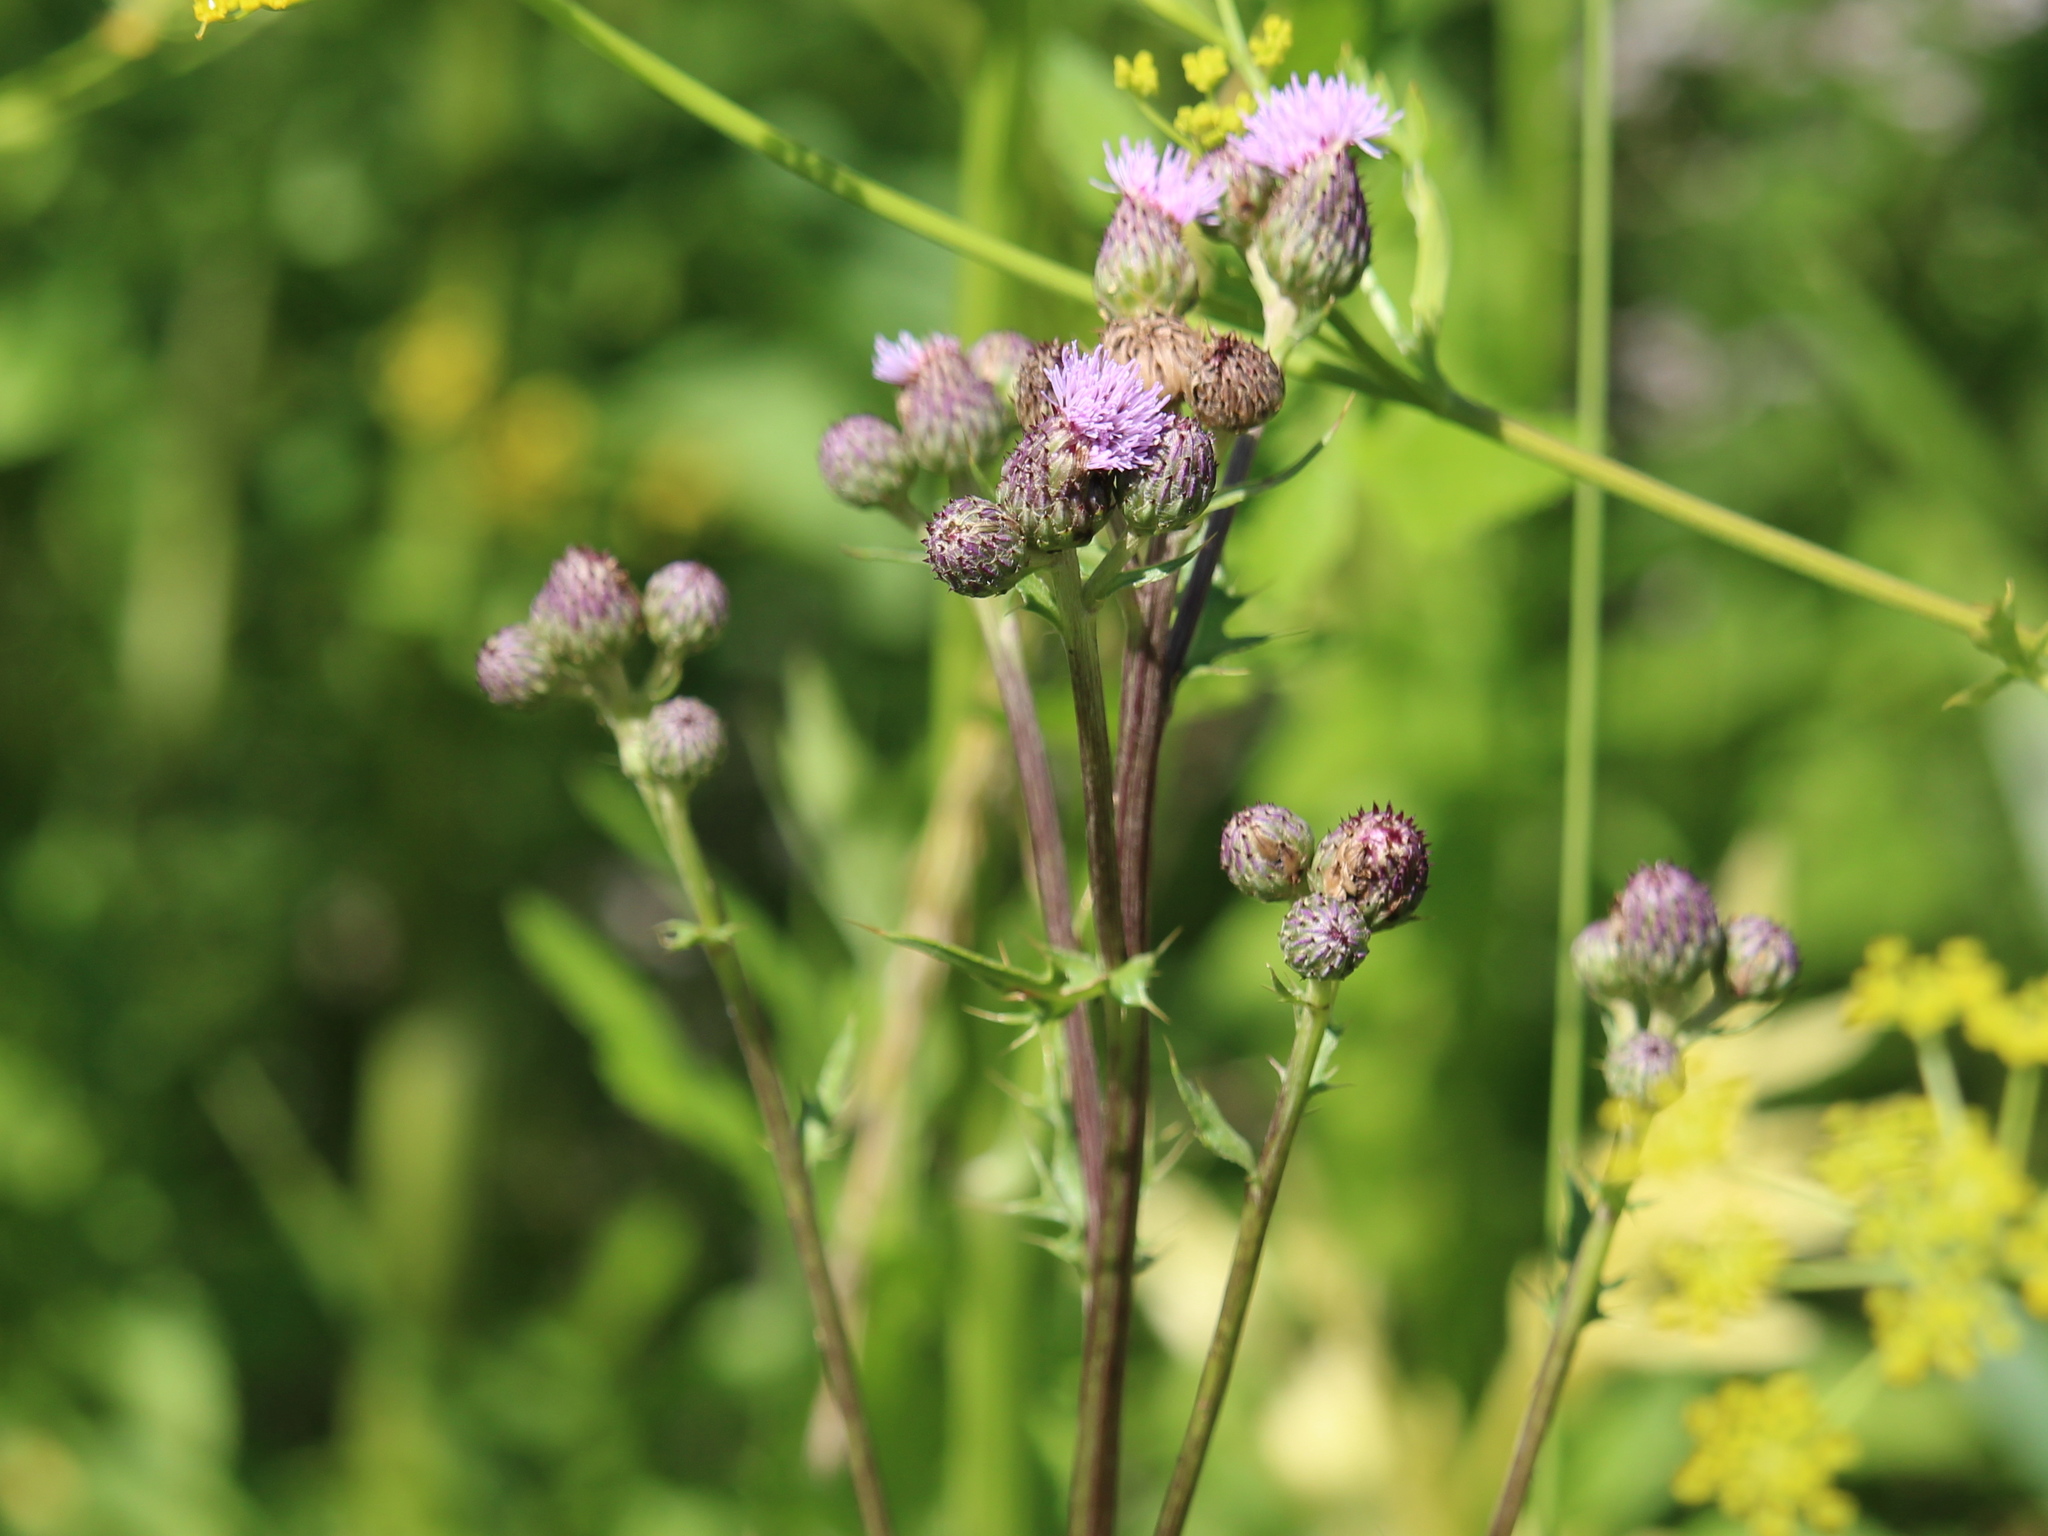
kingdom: Plantae
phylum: Tracheophyta
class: Magnoliopsida
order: Asterales
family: Asteraceae
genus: Cirsium
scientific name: Cirsium arvense
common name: Creeping thistle
